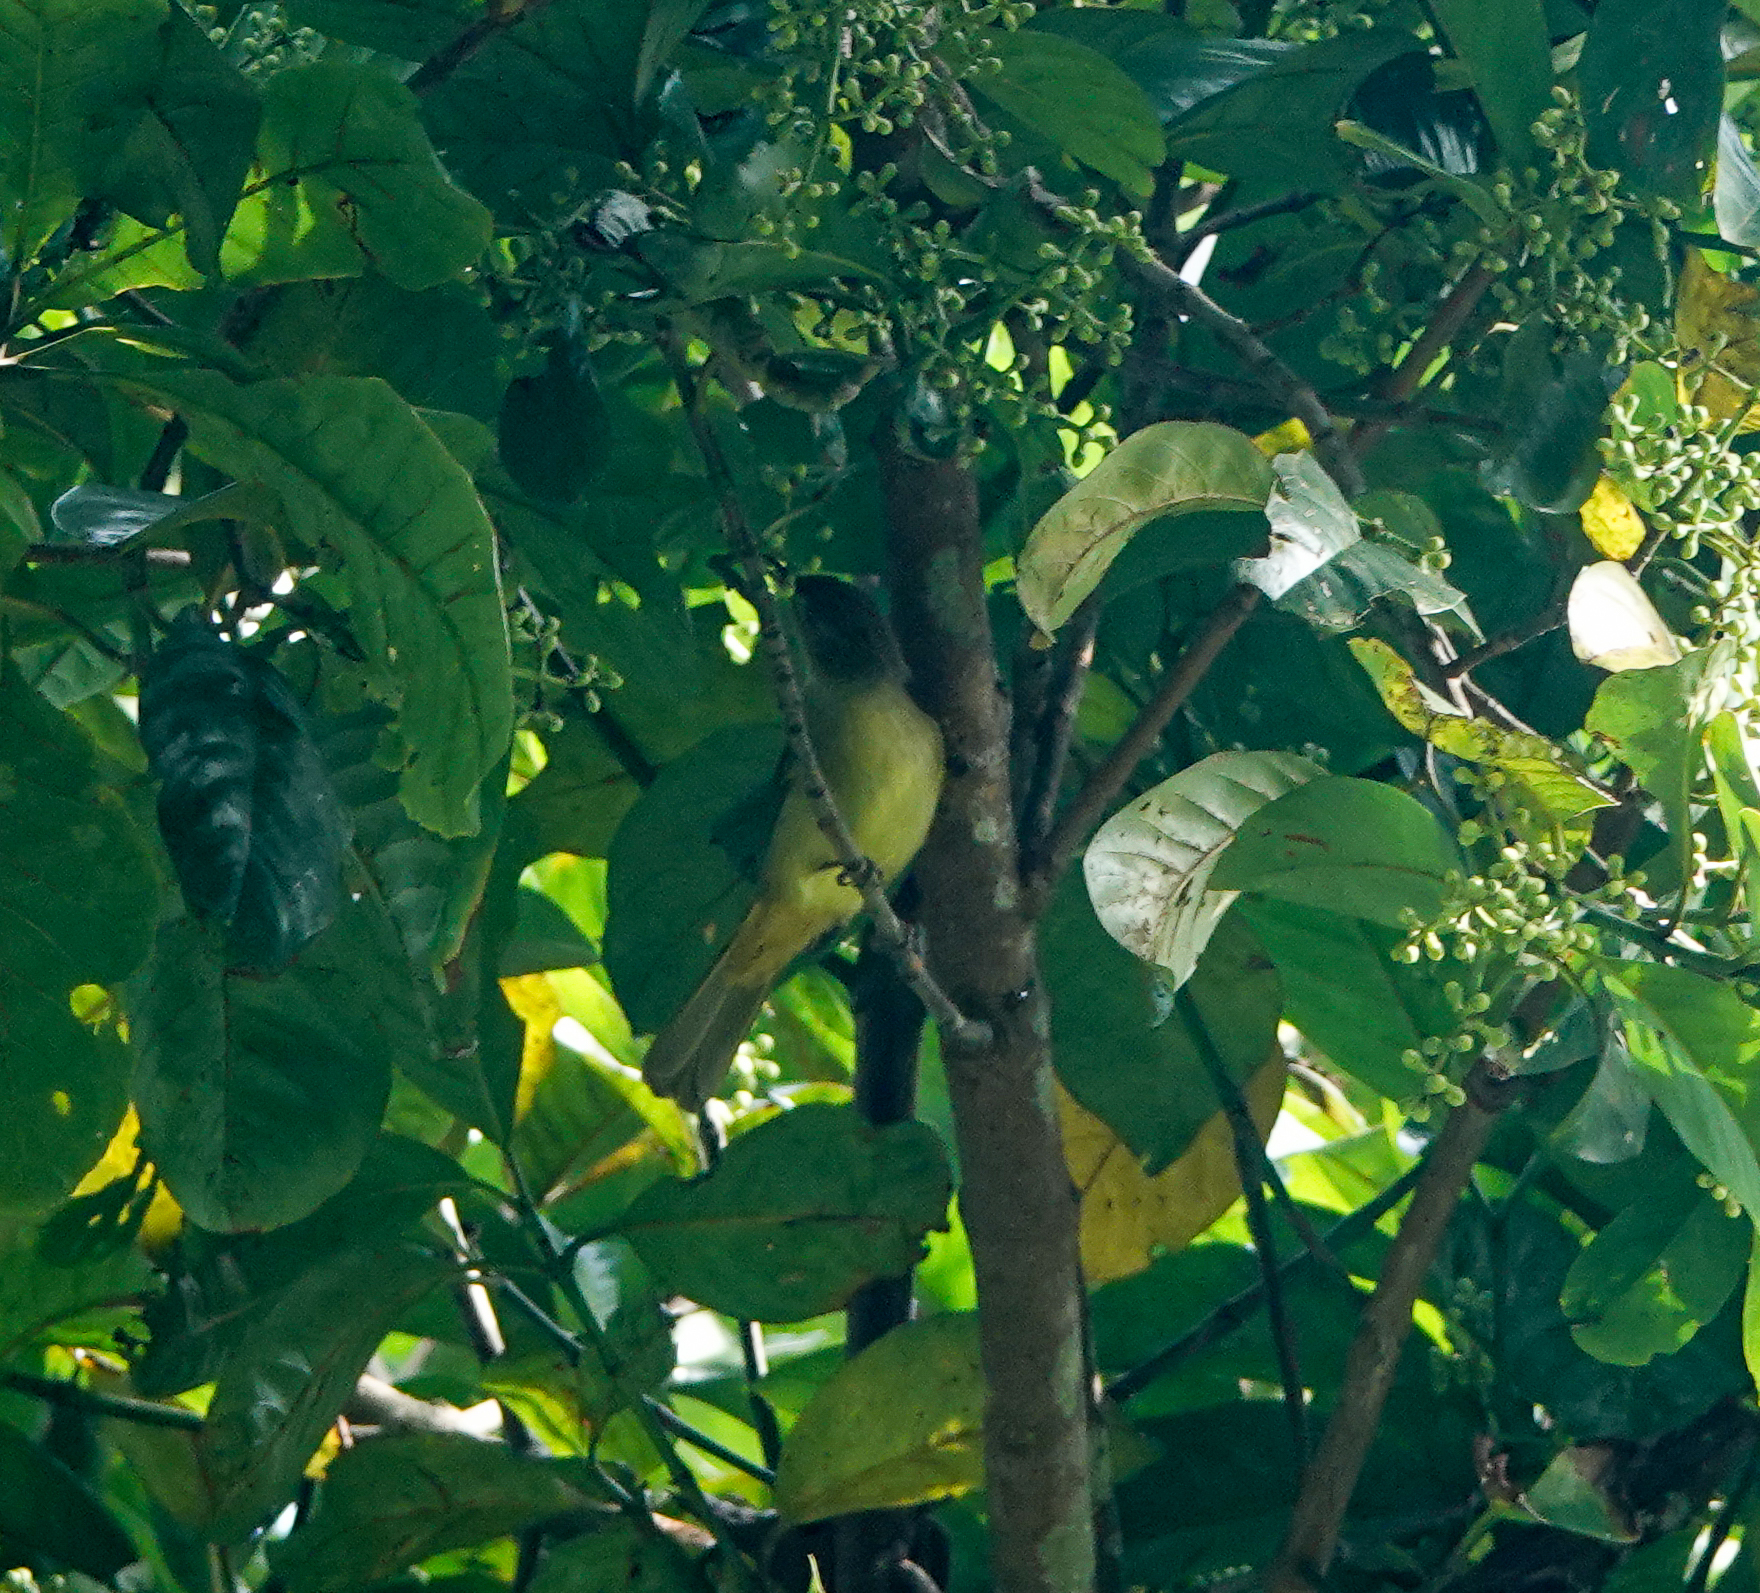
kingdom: Animalia
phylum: Chordata
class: Aves
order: Passeriformes
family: Pycnonotidae
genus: Iole
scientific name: Iole virescens
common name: Olive bulbul
